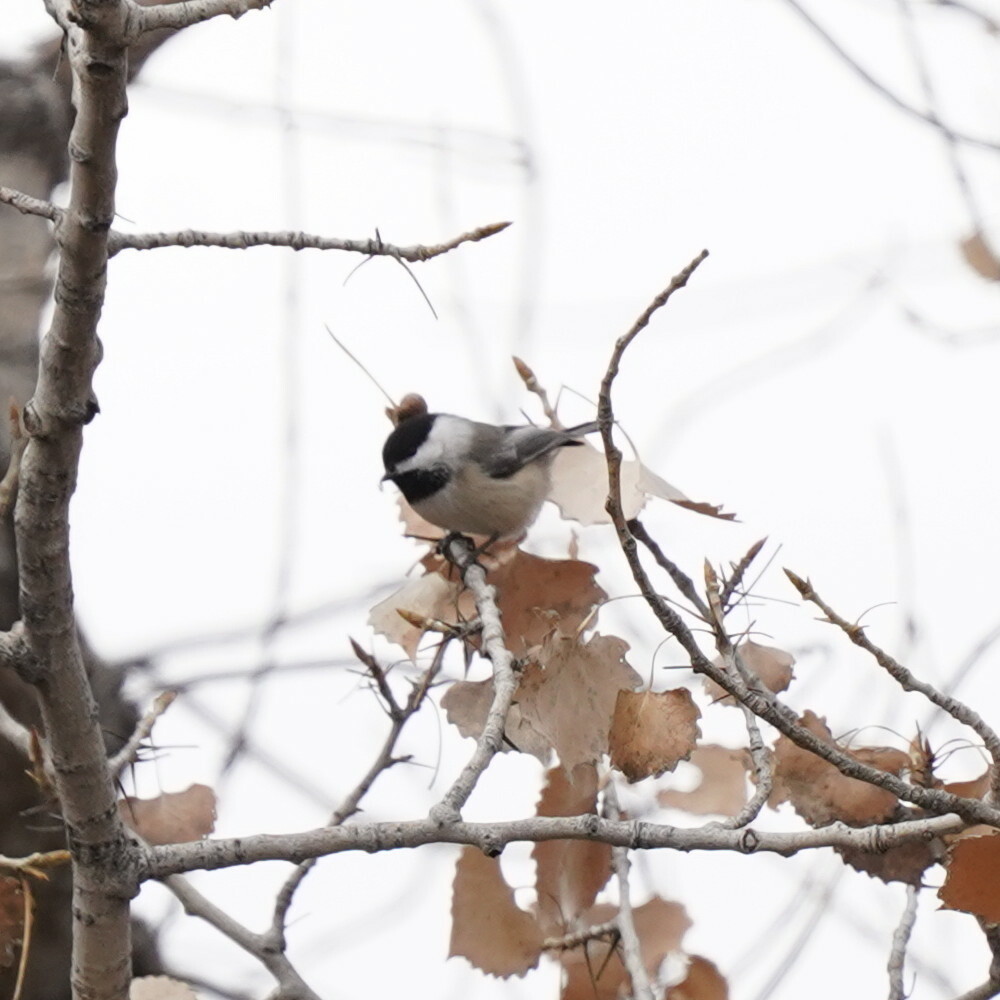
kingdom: Animalia
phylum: Chordata
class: Aves
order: Passeriformes
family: Paridae
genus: Poecile
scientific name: Poecile atricapillus
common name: Black-capped chickadee
